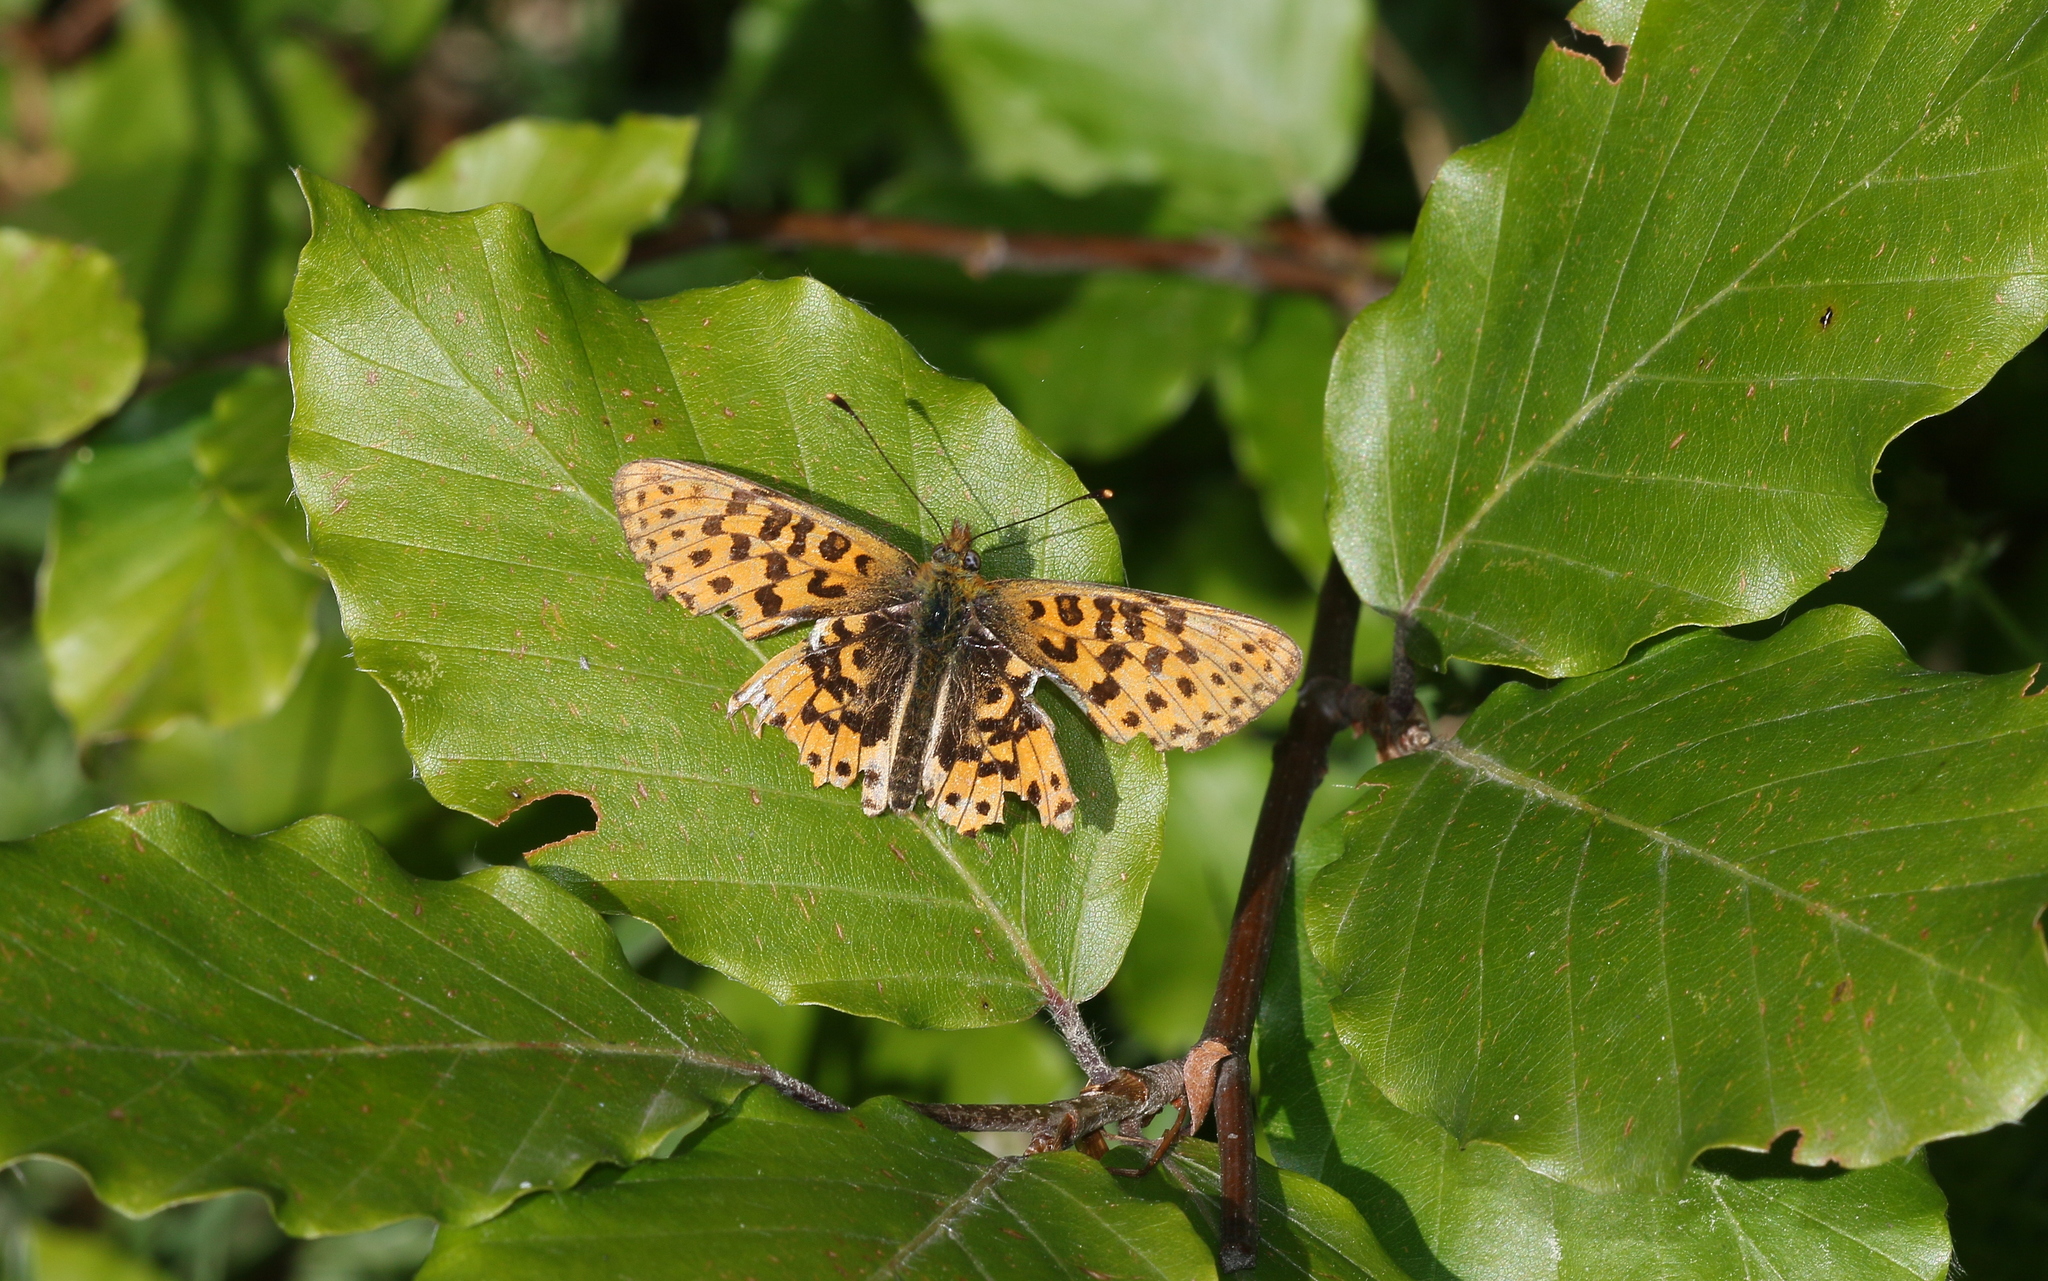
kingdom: Animalia
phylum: Arthropoda
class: Insecta
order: Lepidoptera
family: Nymphalidae
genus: Clossiana
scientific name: Clossiana euphrosyne
